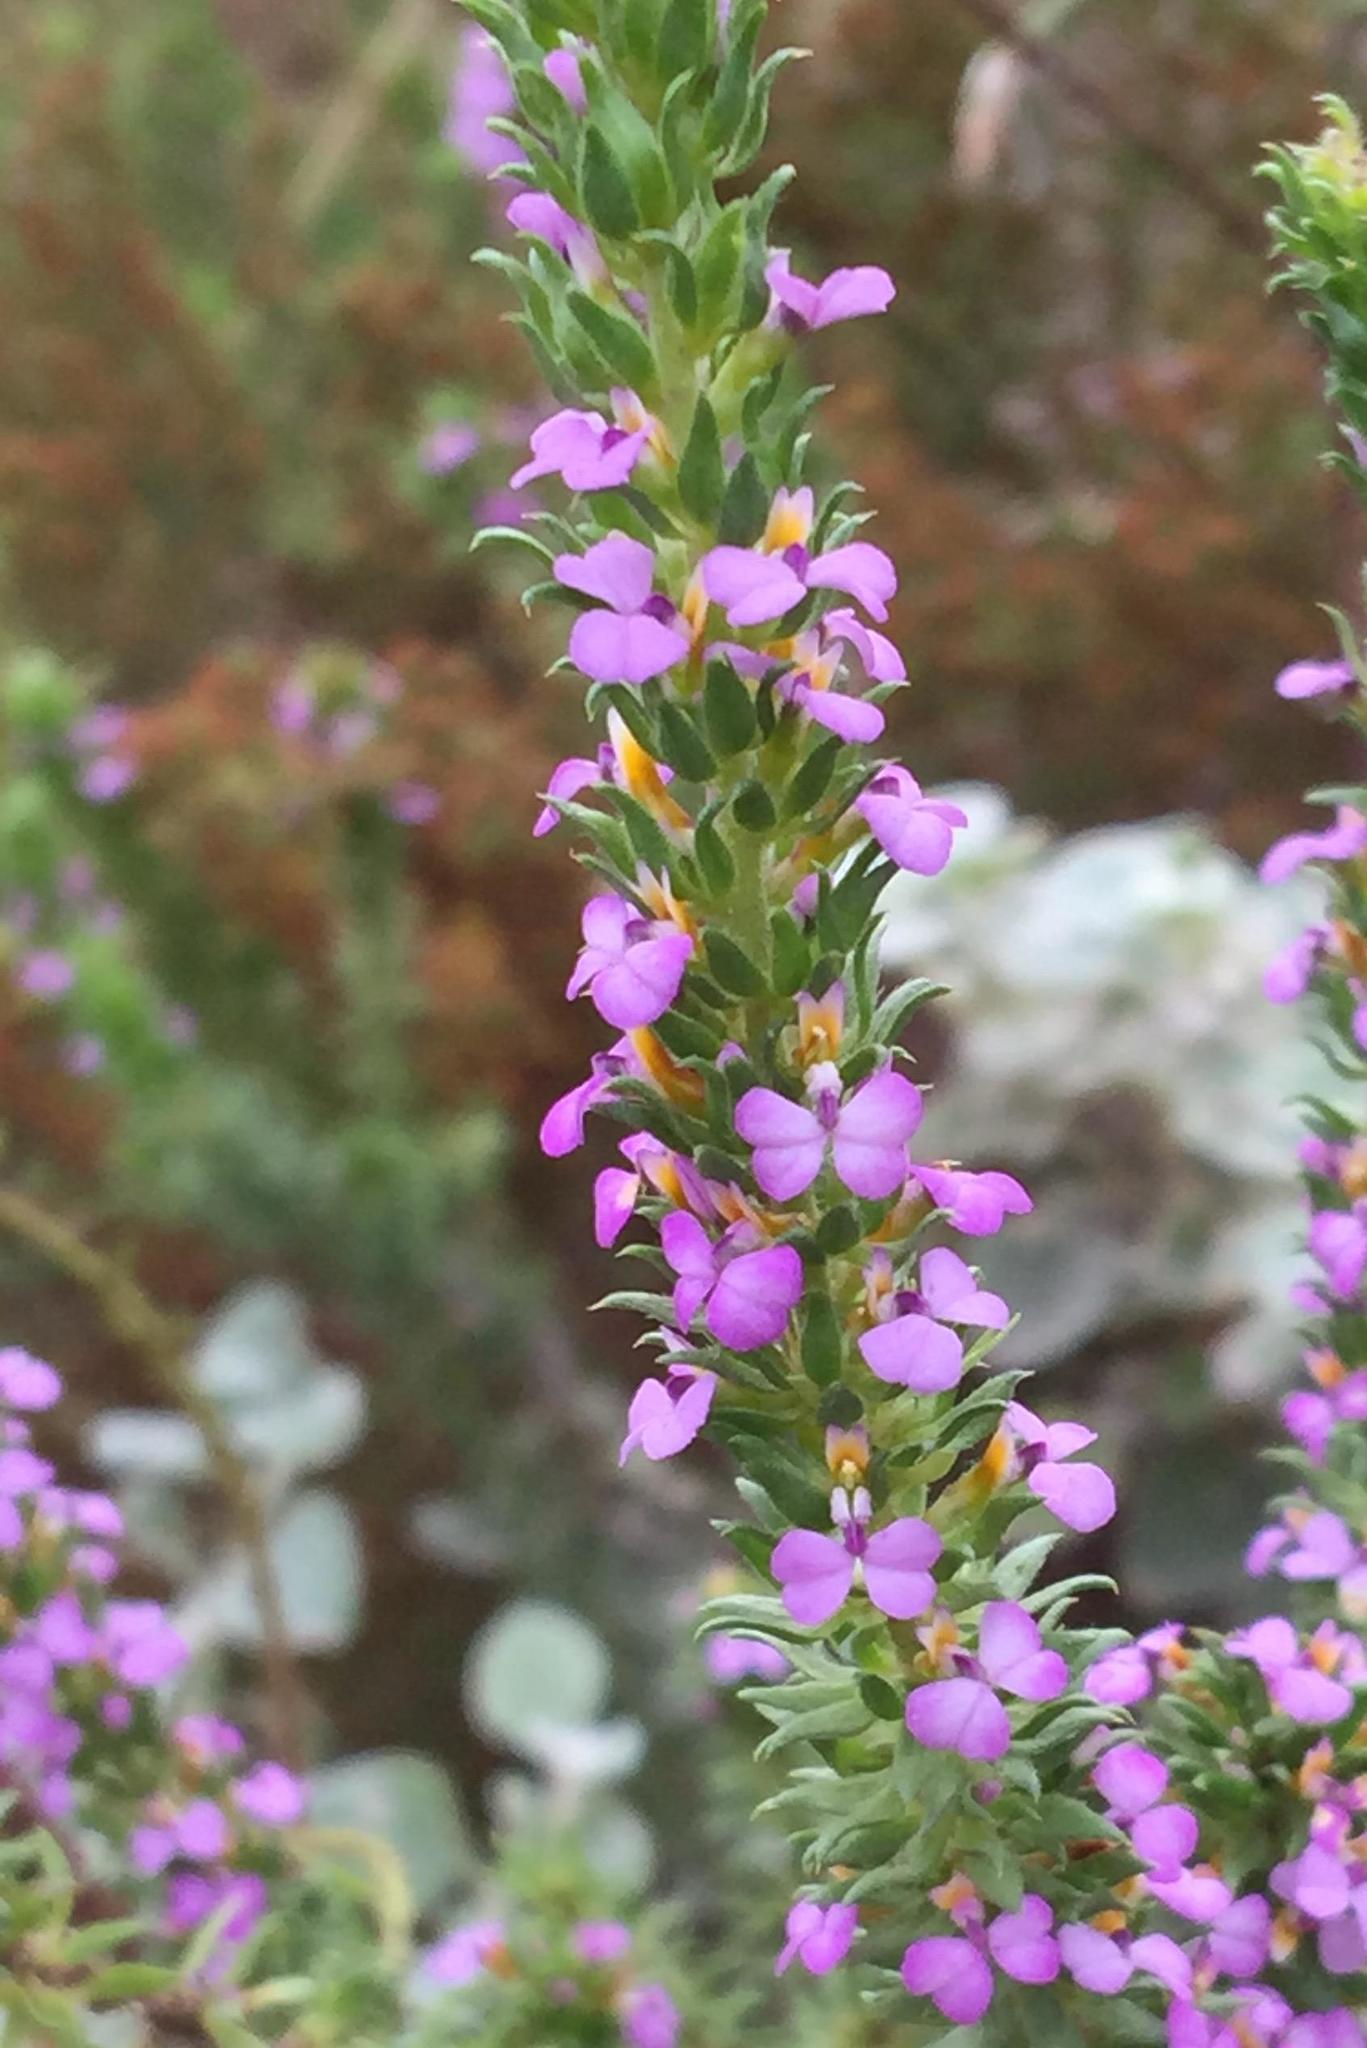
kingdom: Plantae
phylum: Tracheophyta
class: Magnoliopsida
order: Fabales
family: Polygalaceae
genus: Muraltia
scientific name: Muraltia satureioides
